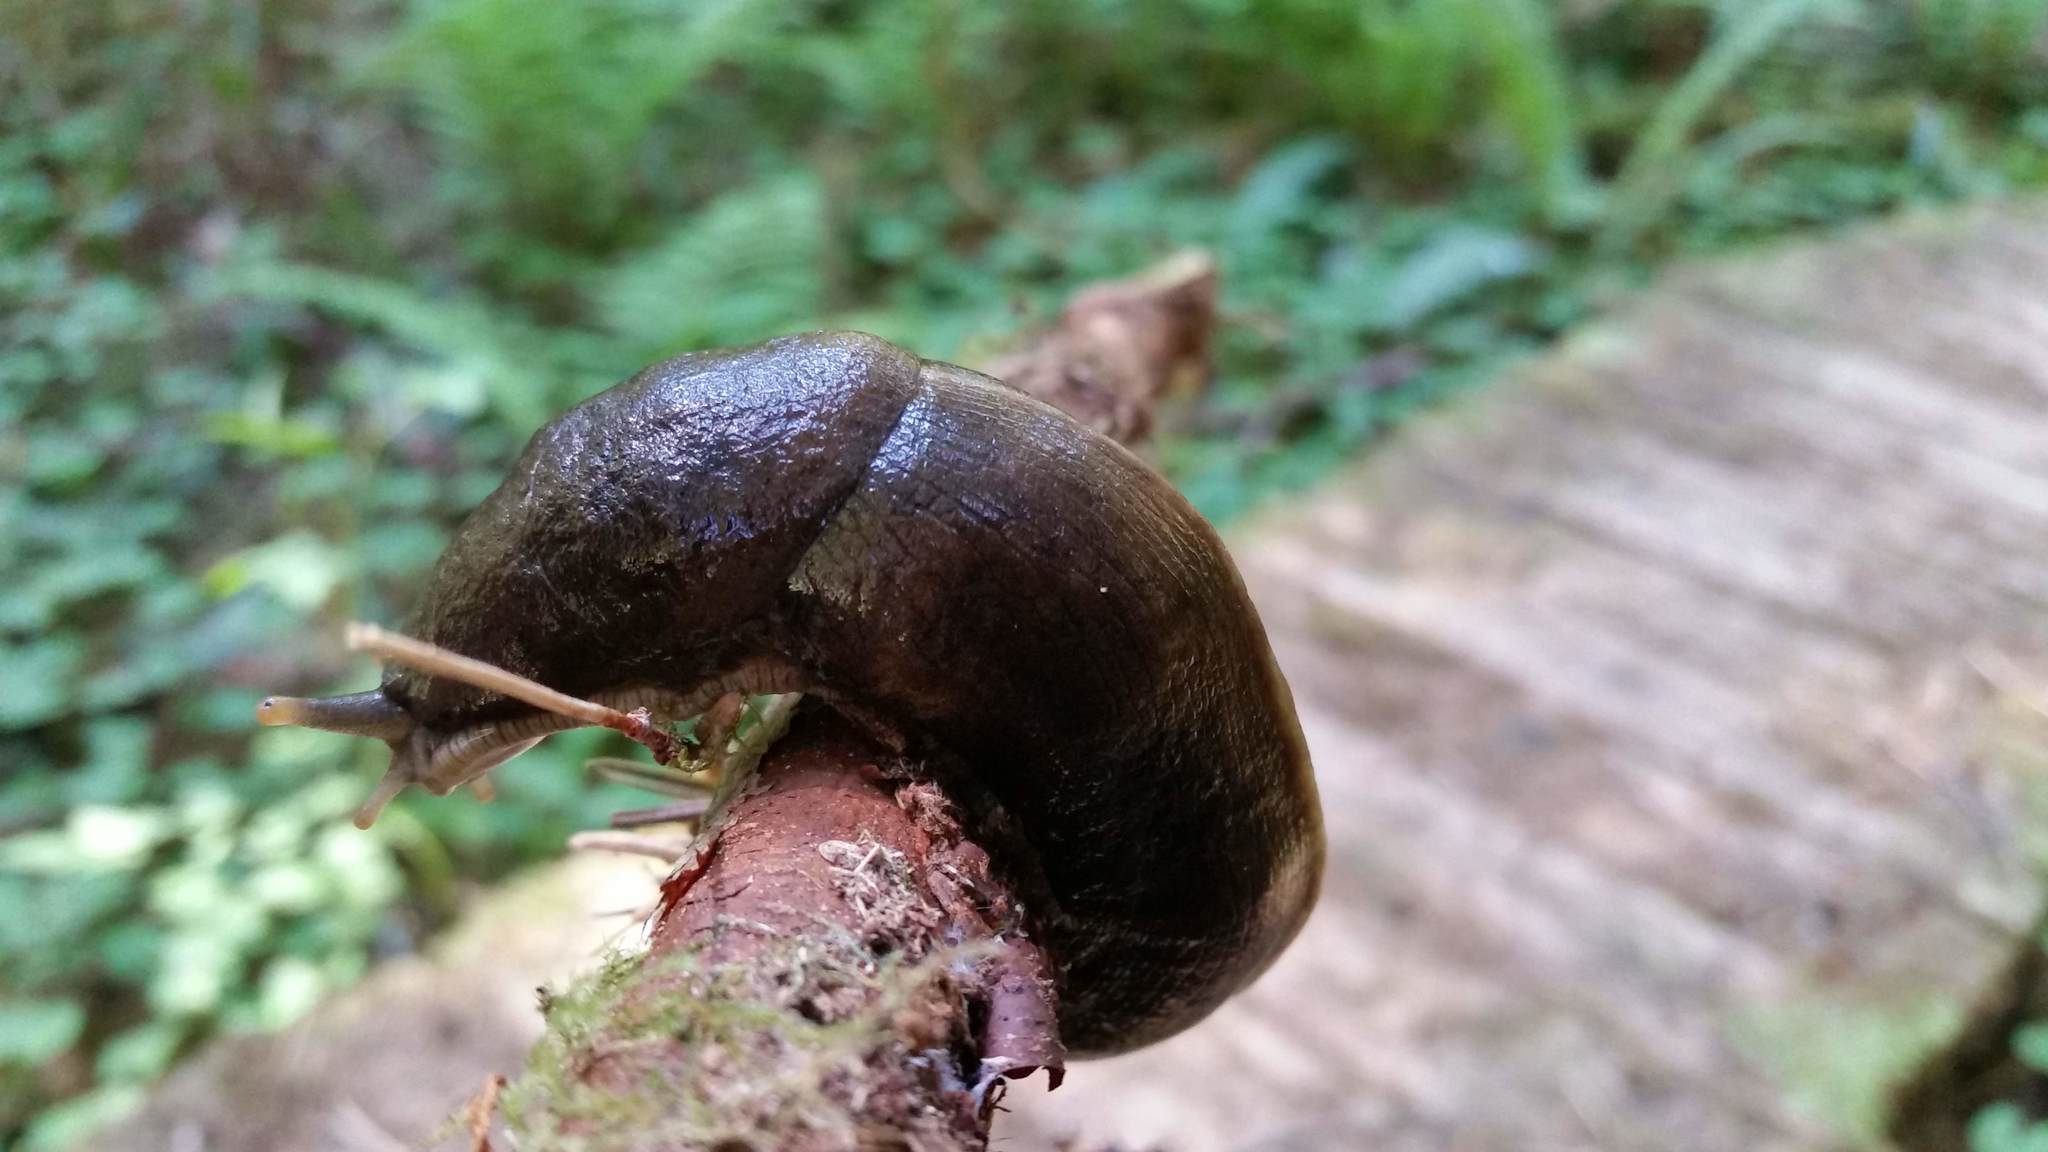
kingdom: Animalia
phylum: Mollusca
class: Gastropoda
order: Stylommatophora
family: Ariolimacidae
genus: Ariolimax
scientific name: Ariolimax columbianus
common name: Pacific banana slug
